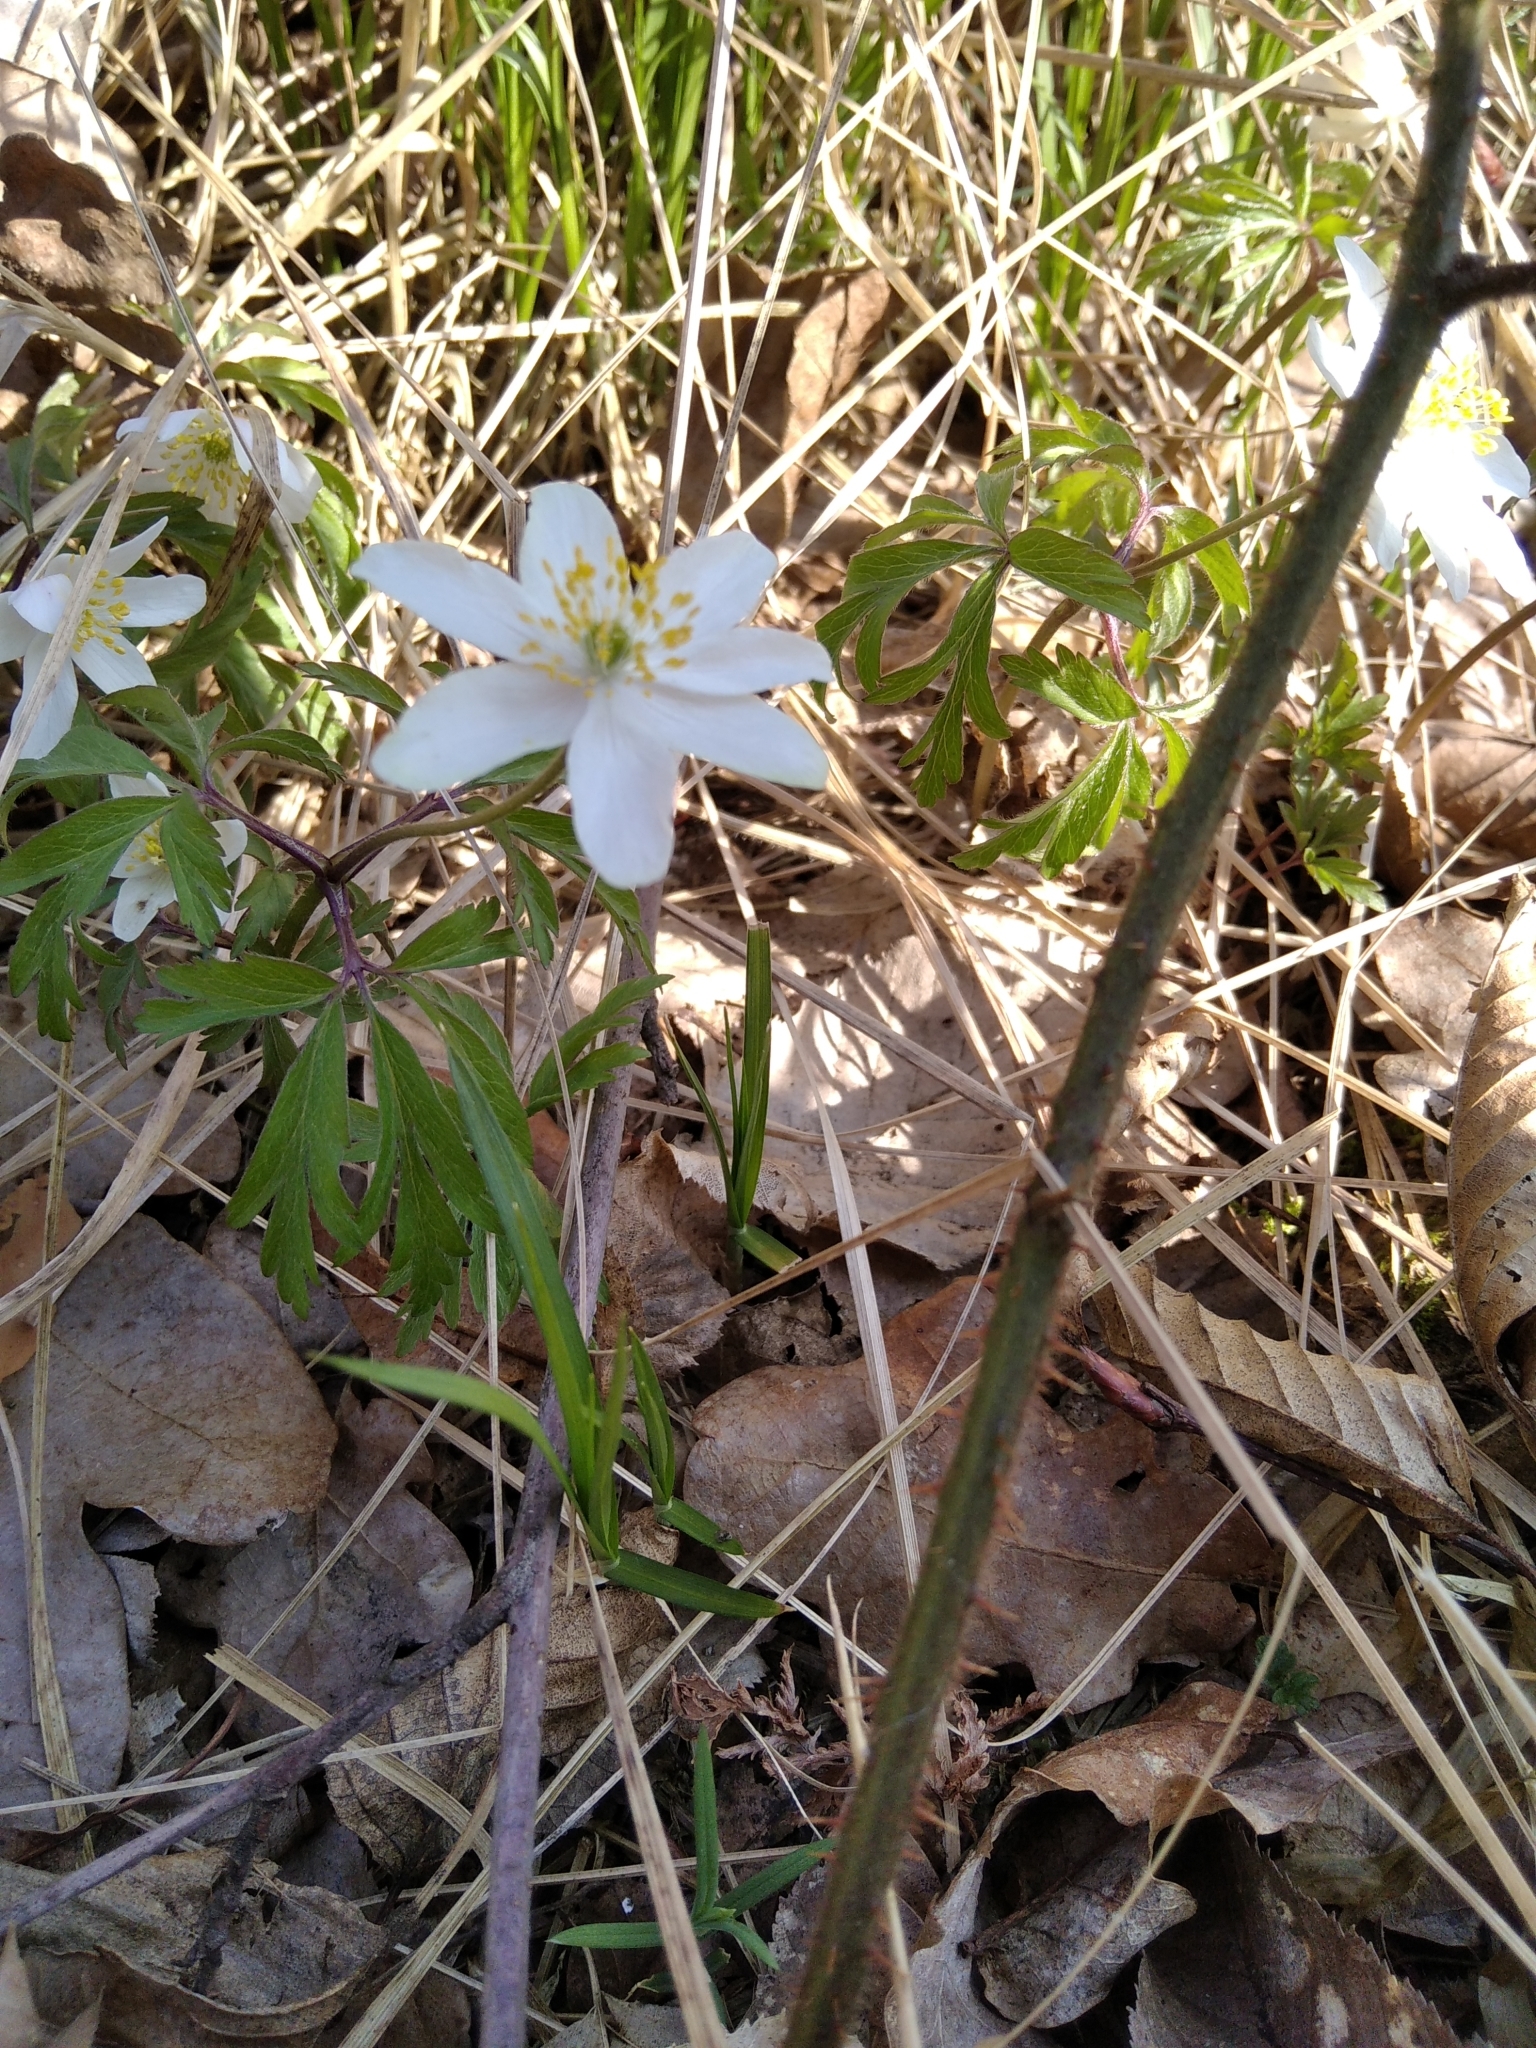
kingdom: Plantae
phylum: Tracheophyta
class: Magnoliopsida
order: Ranunculales
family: Ranunculaceae
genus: Anemone
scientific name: Anemone nemorosa
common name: Wood anemone
